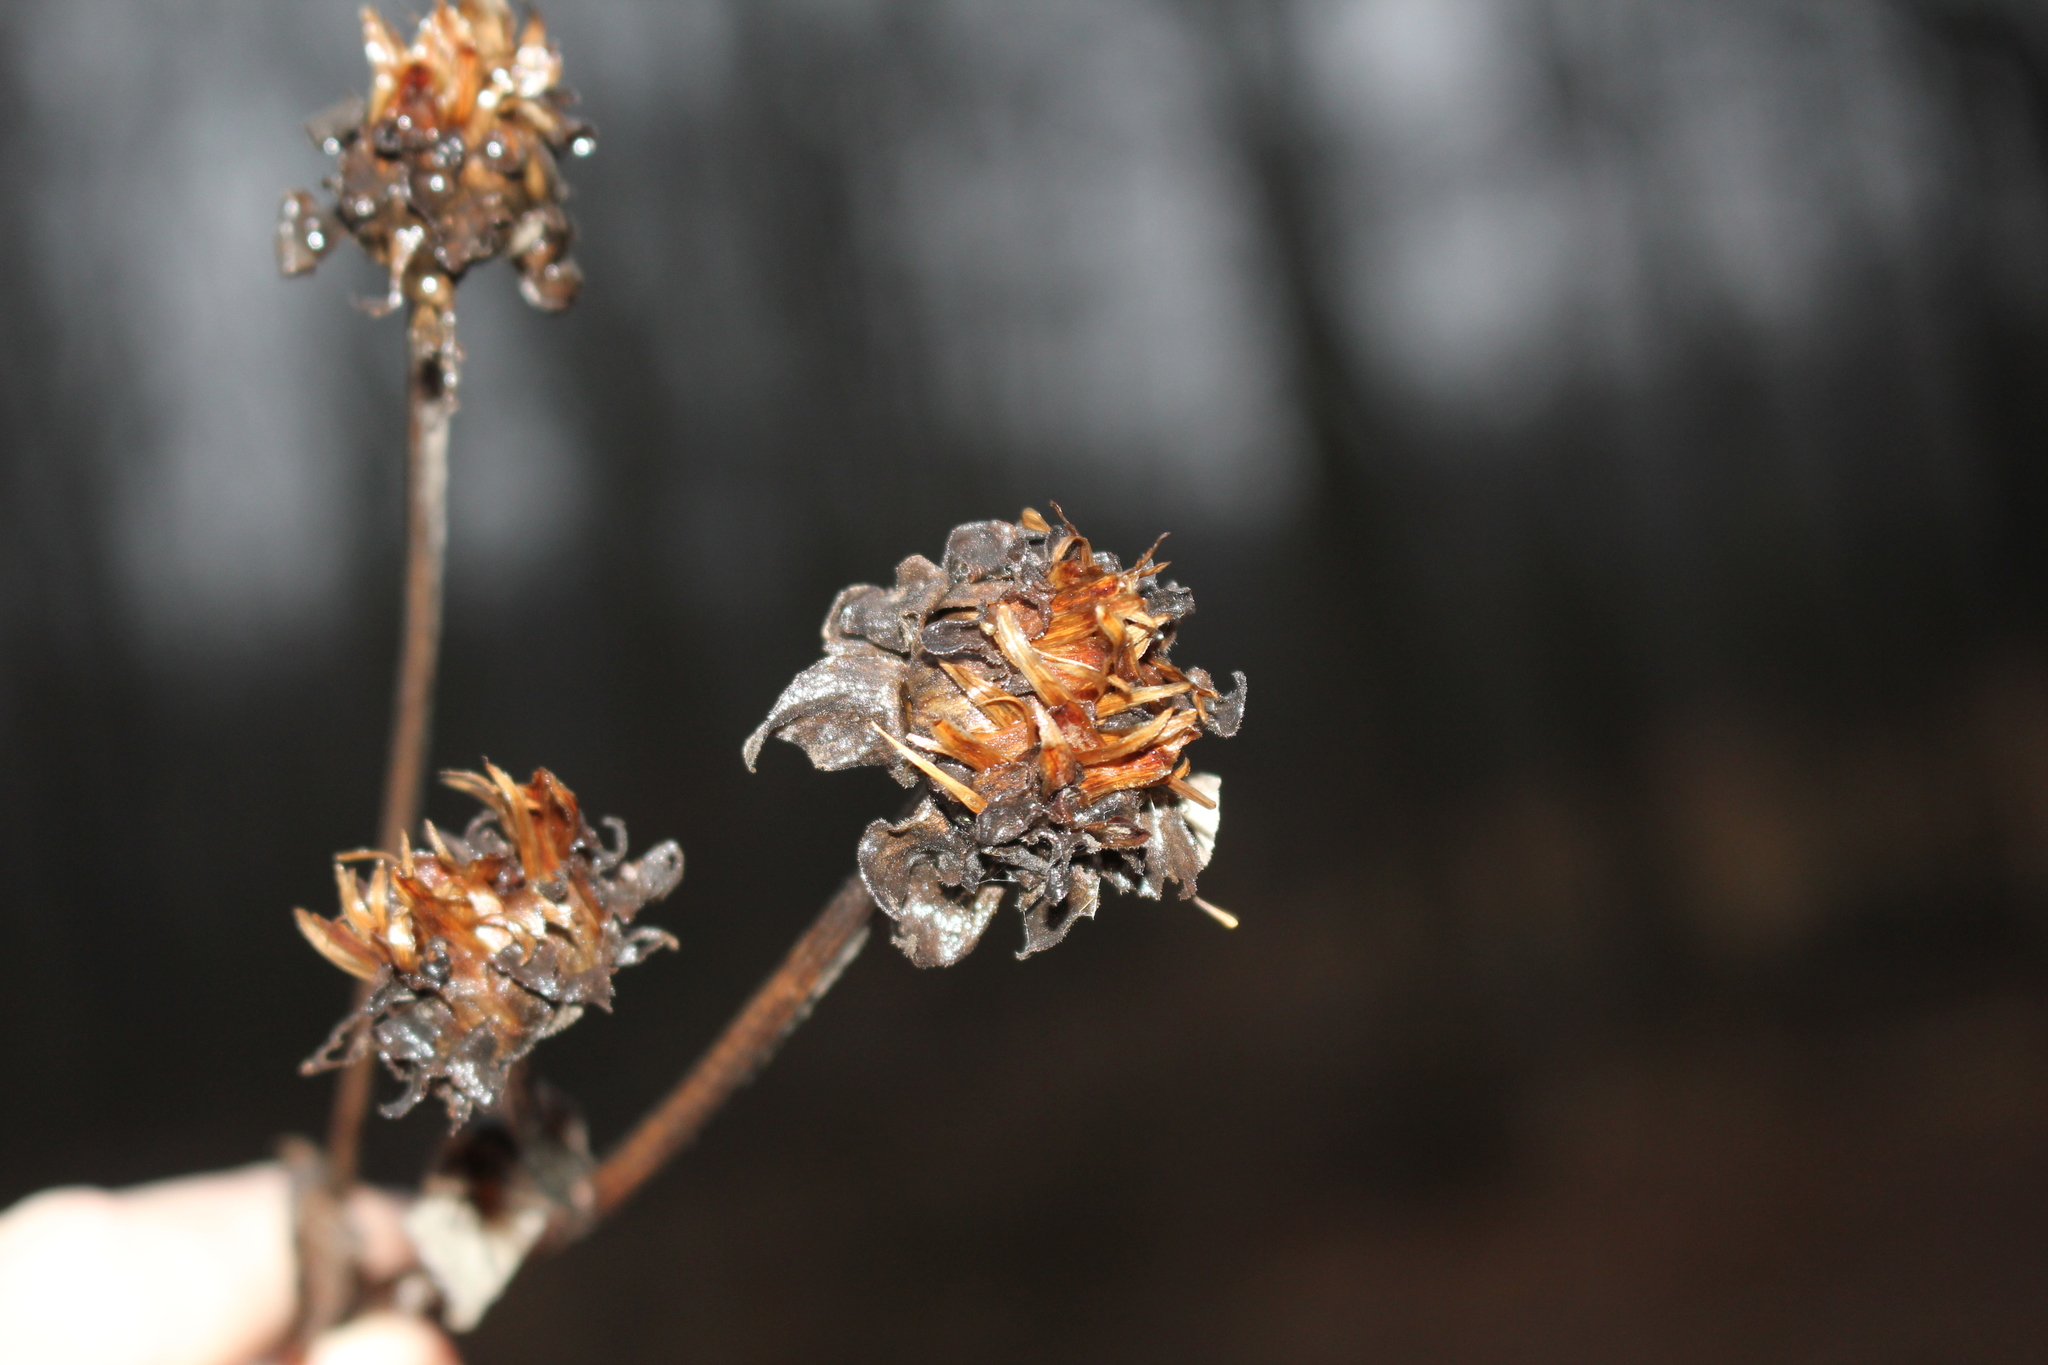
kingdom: Plantae
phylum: Tracheophyta
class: Magnoliopsida
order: Asterales
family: Asteraceae
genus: Inula
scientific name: Inula helenium
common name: Elecampane
